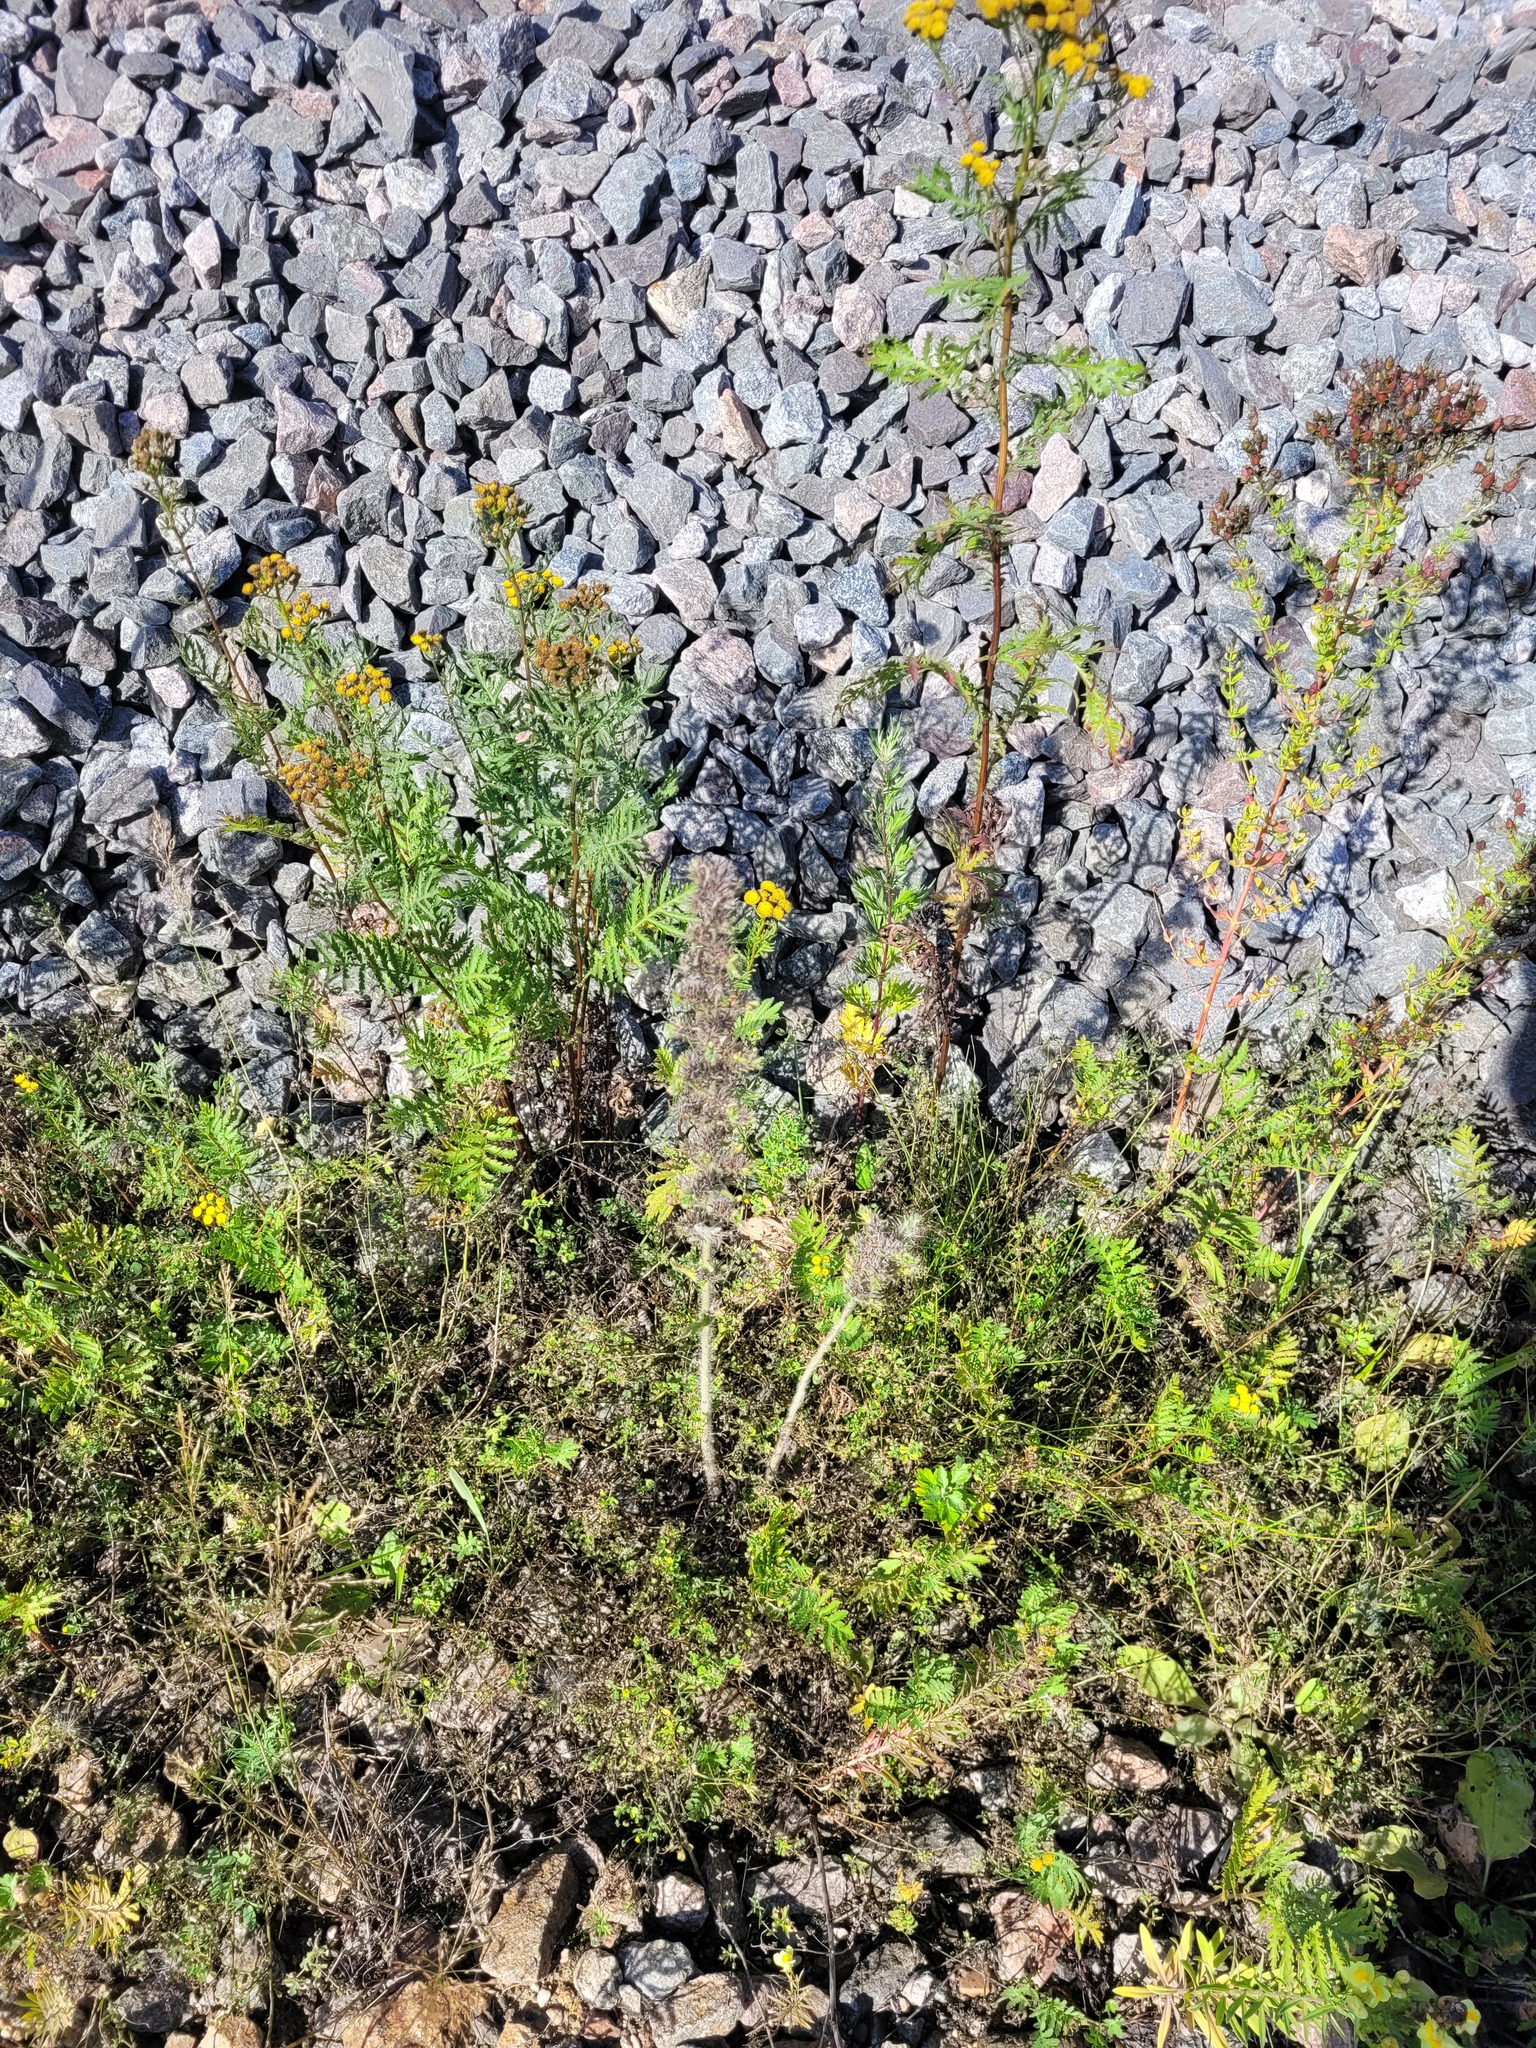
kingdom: Plantae
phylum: Tracheophyta
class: Magnoliopsida
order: Boraginales
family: Boraginaceae
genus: Echium
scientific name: Echium vulgare
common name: Common viper's bugloss
